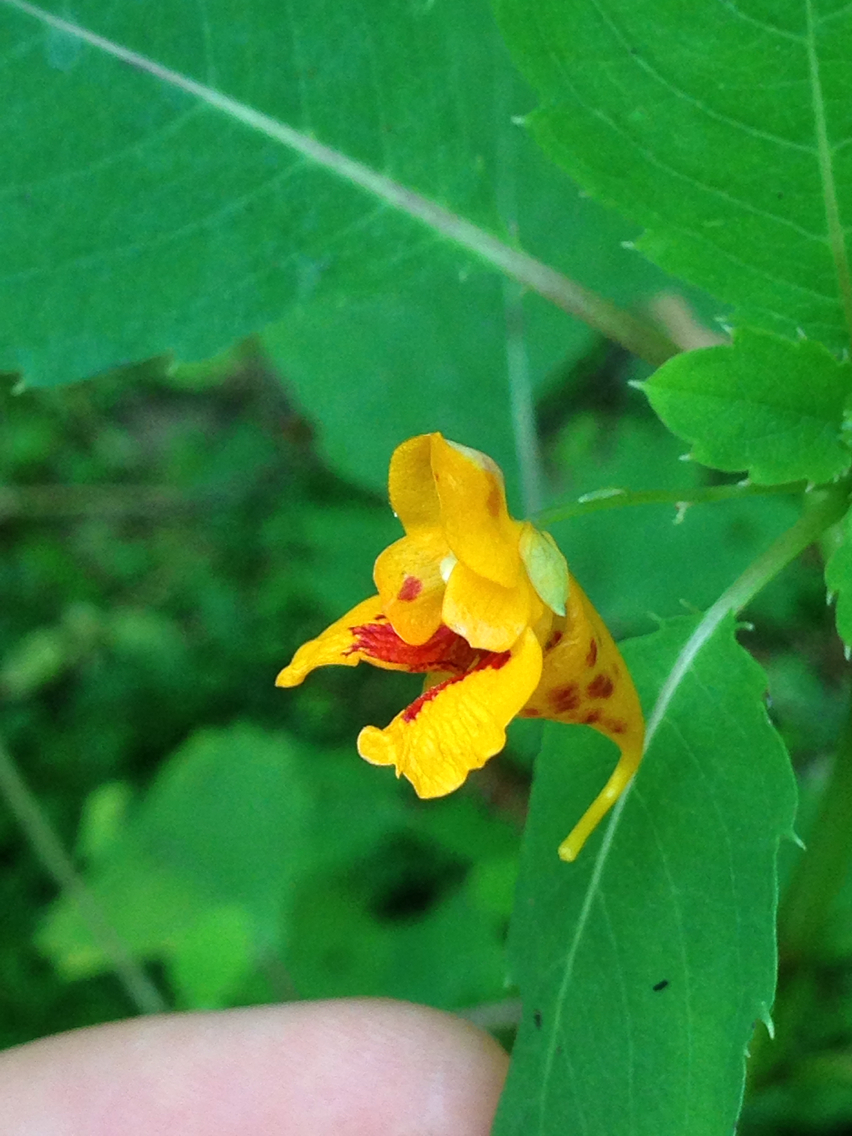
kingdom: Plantae
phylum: Tracheophyta
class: Magnoliopsida
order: Ericales
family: Balsaminaceae
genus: Impatiens
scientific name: Impatiens capensis
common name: Orange balsam
